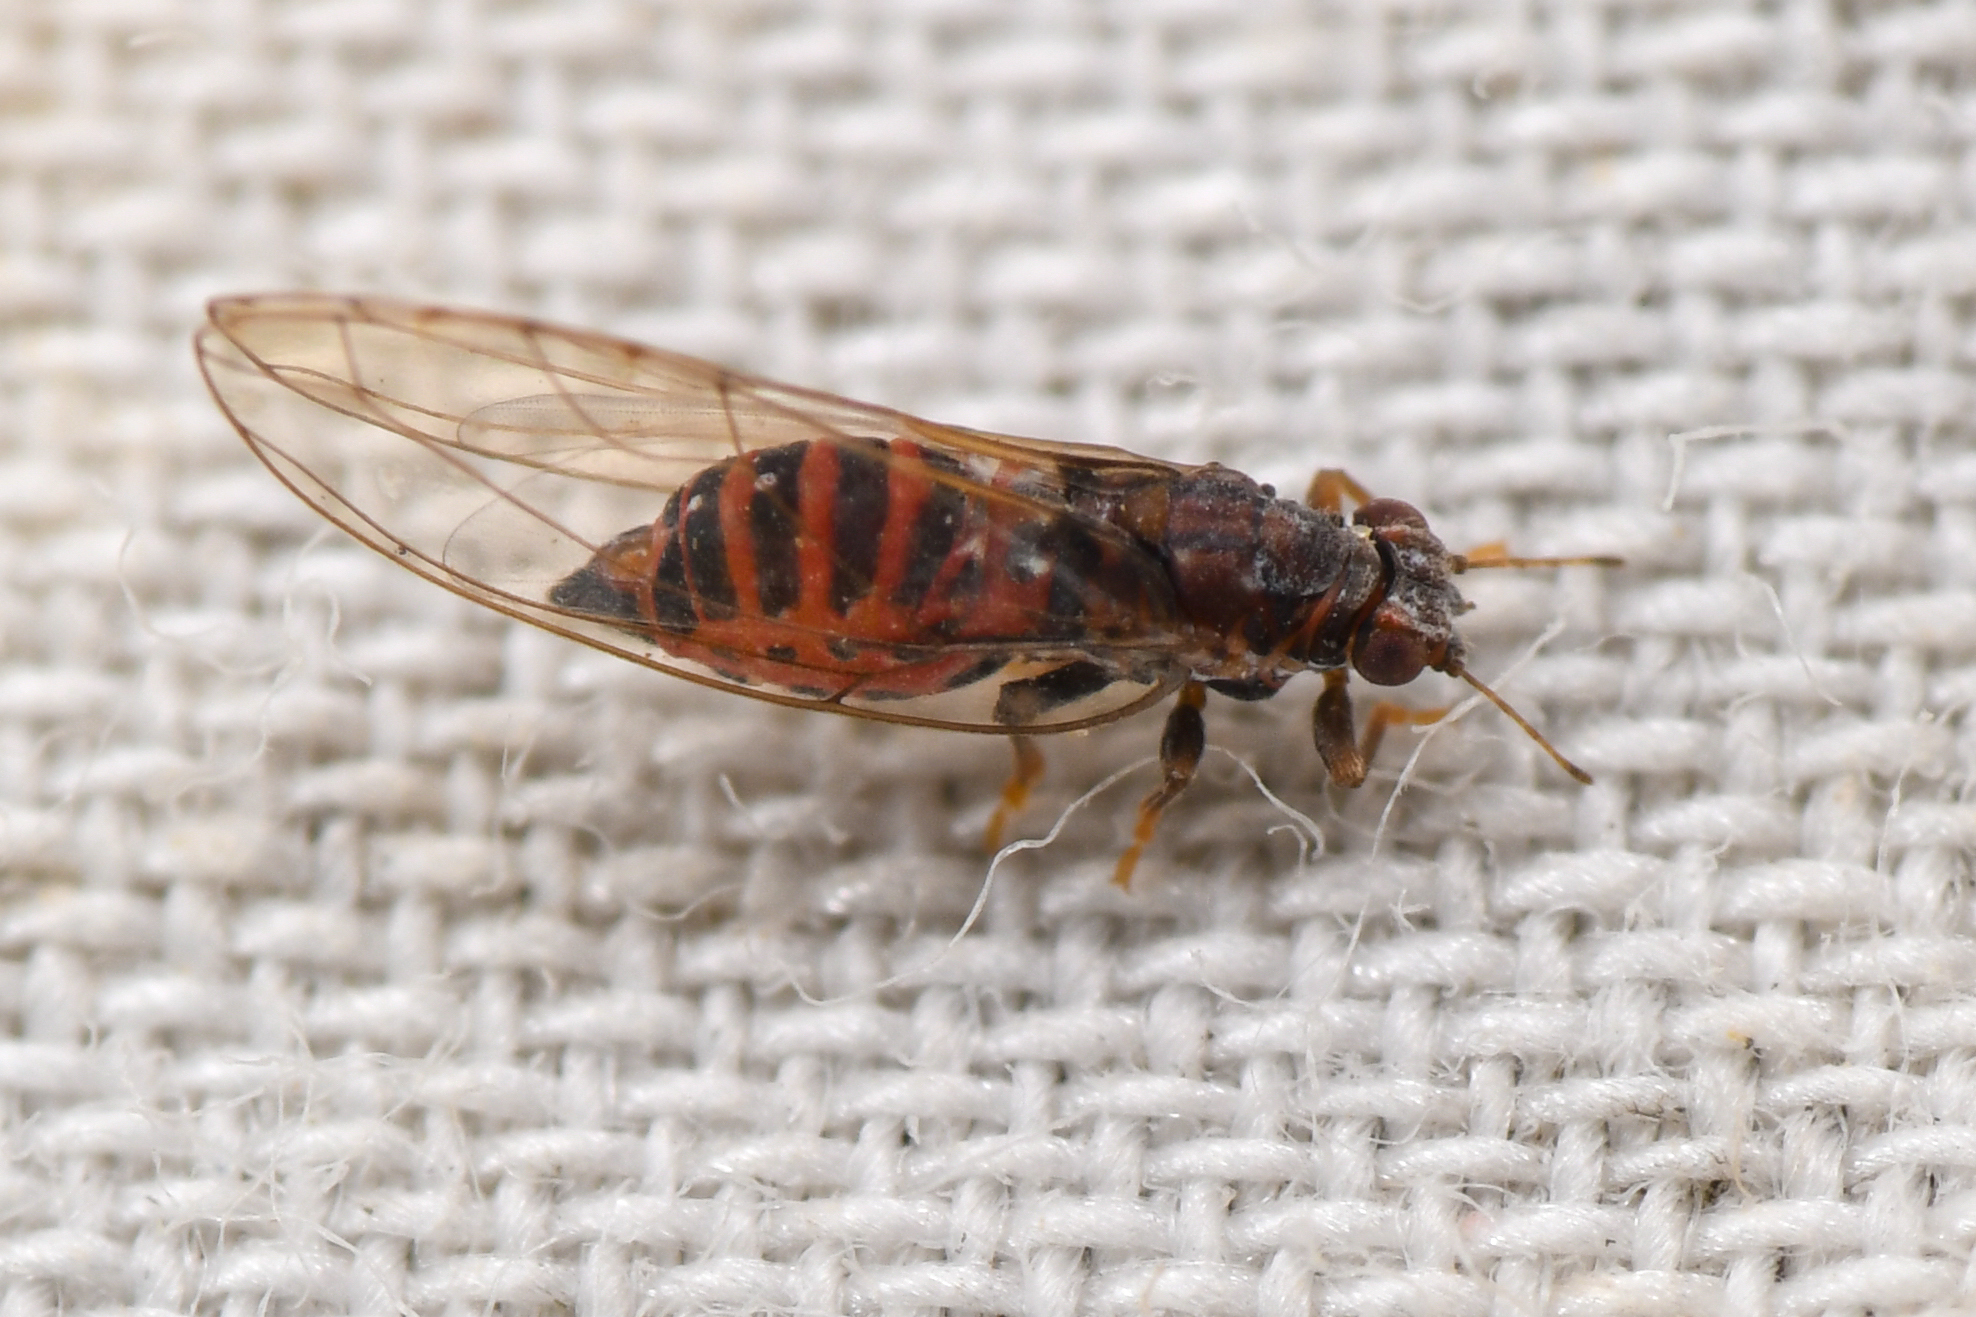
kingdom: Animalia
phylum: Arthropoda
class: Insecta
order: Hemiptera
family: Triozidae
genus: Trioza
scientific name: Trioza bakeri
